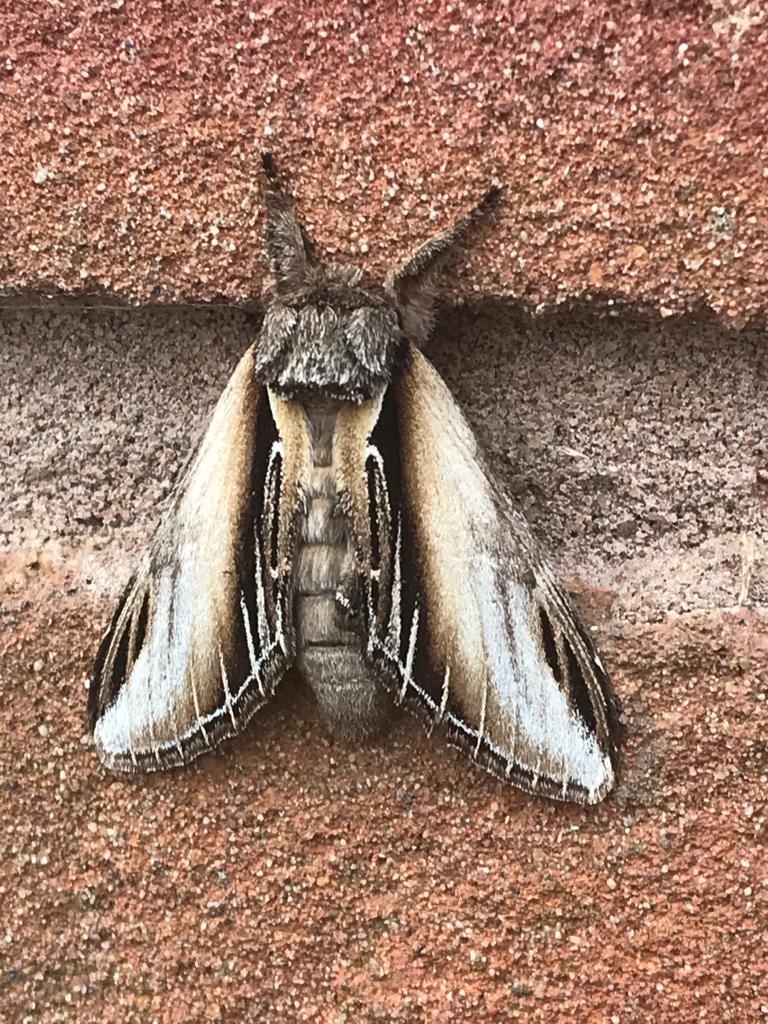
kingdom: Animalia
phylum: Arthropoda
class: Insecta
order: Lepidoptera
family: Notodontidae
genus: Pheosia
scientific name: Pheosia tremula
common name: Swallow prominent
